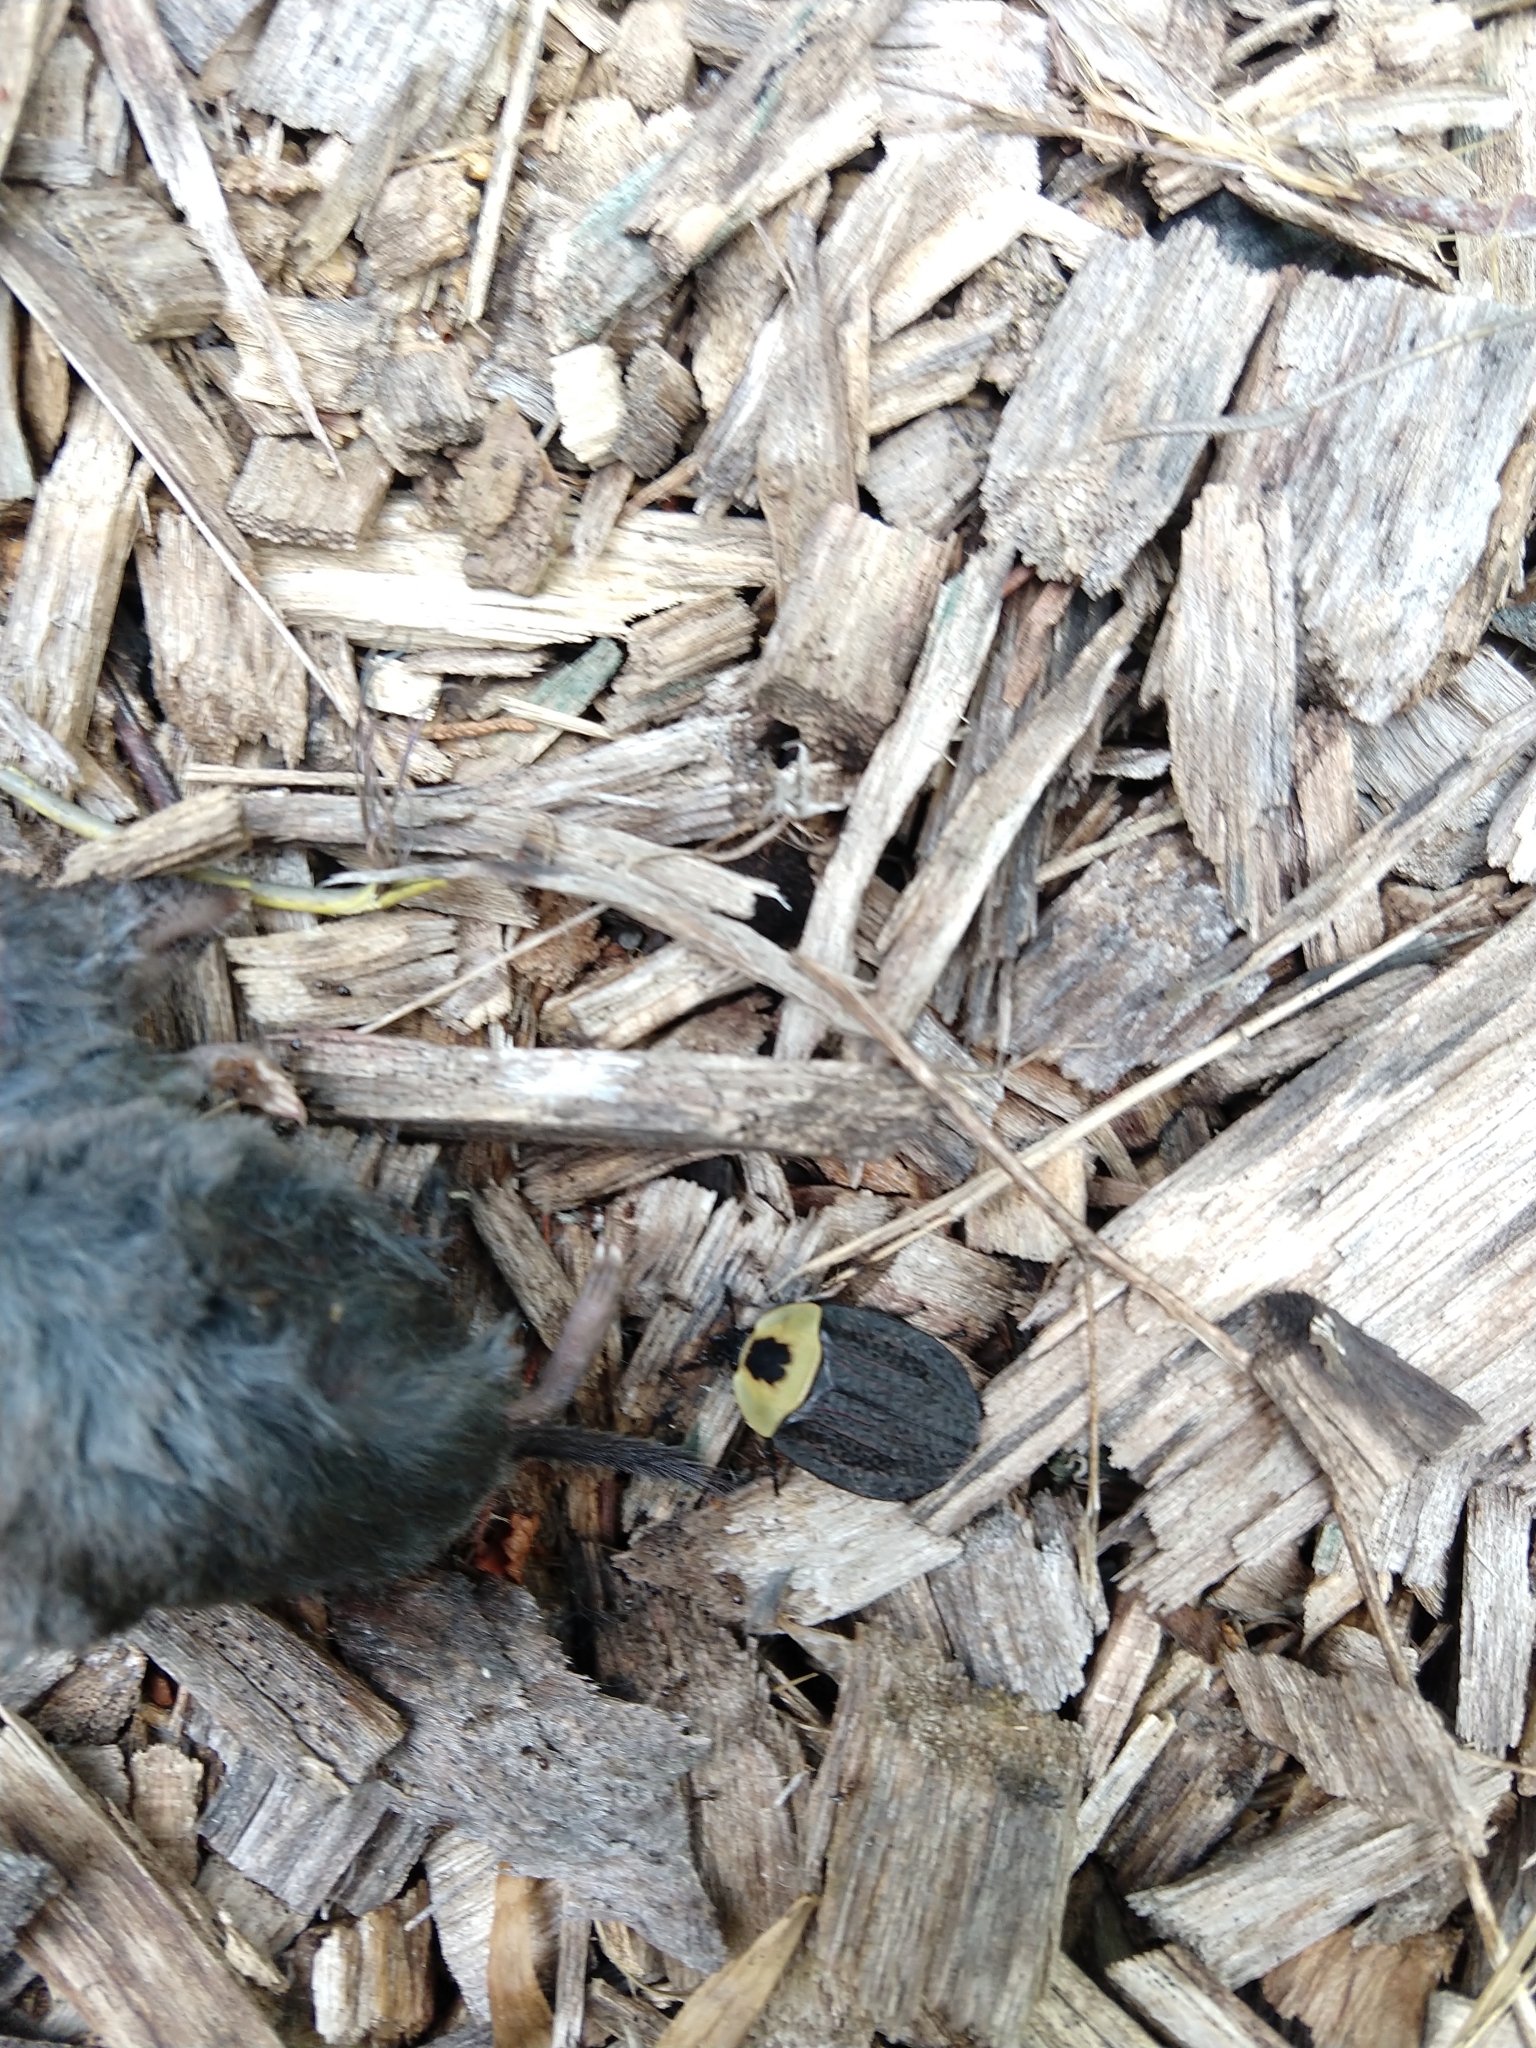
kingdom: Animalia
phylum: Arthropoda
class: Insecta
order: Coleoptera
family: Staphylinidae
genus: Necrophila
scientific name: Necrophila americana
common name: American carrion beetle
